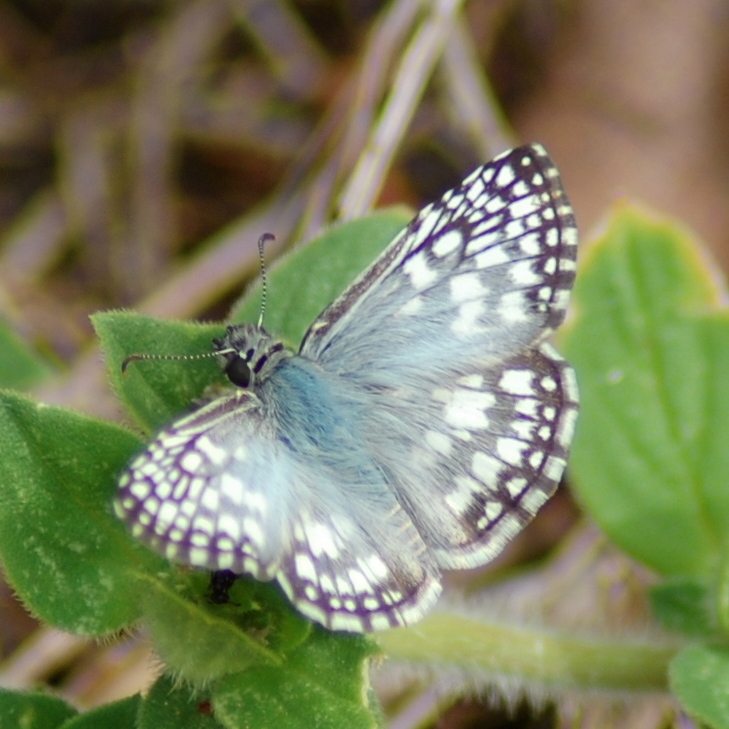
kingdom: Animalia
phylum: Arthropoda
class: Insecta
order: Lepidoptera
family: Hesperiidae
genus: Pyrgus
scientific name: Pyrgus oileus
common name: Tropical checkered-skipper
